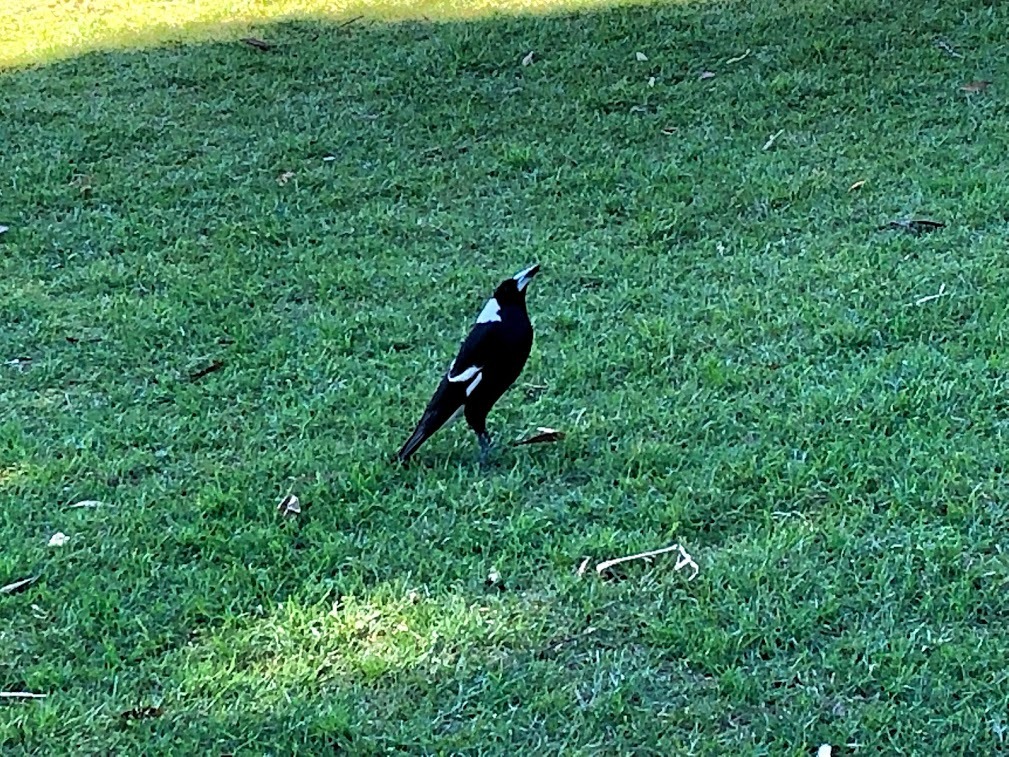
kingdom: Animalia
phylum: Chordata
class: Aves
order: Passeriformes
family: Cracticidae
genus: Gymnorhina
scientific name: Gymnorhina tibicen
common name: Australian magpie
